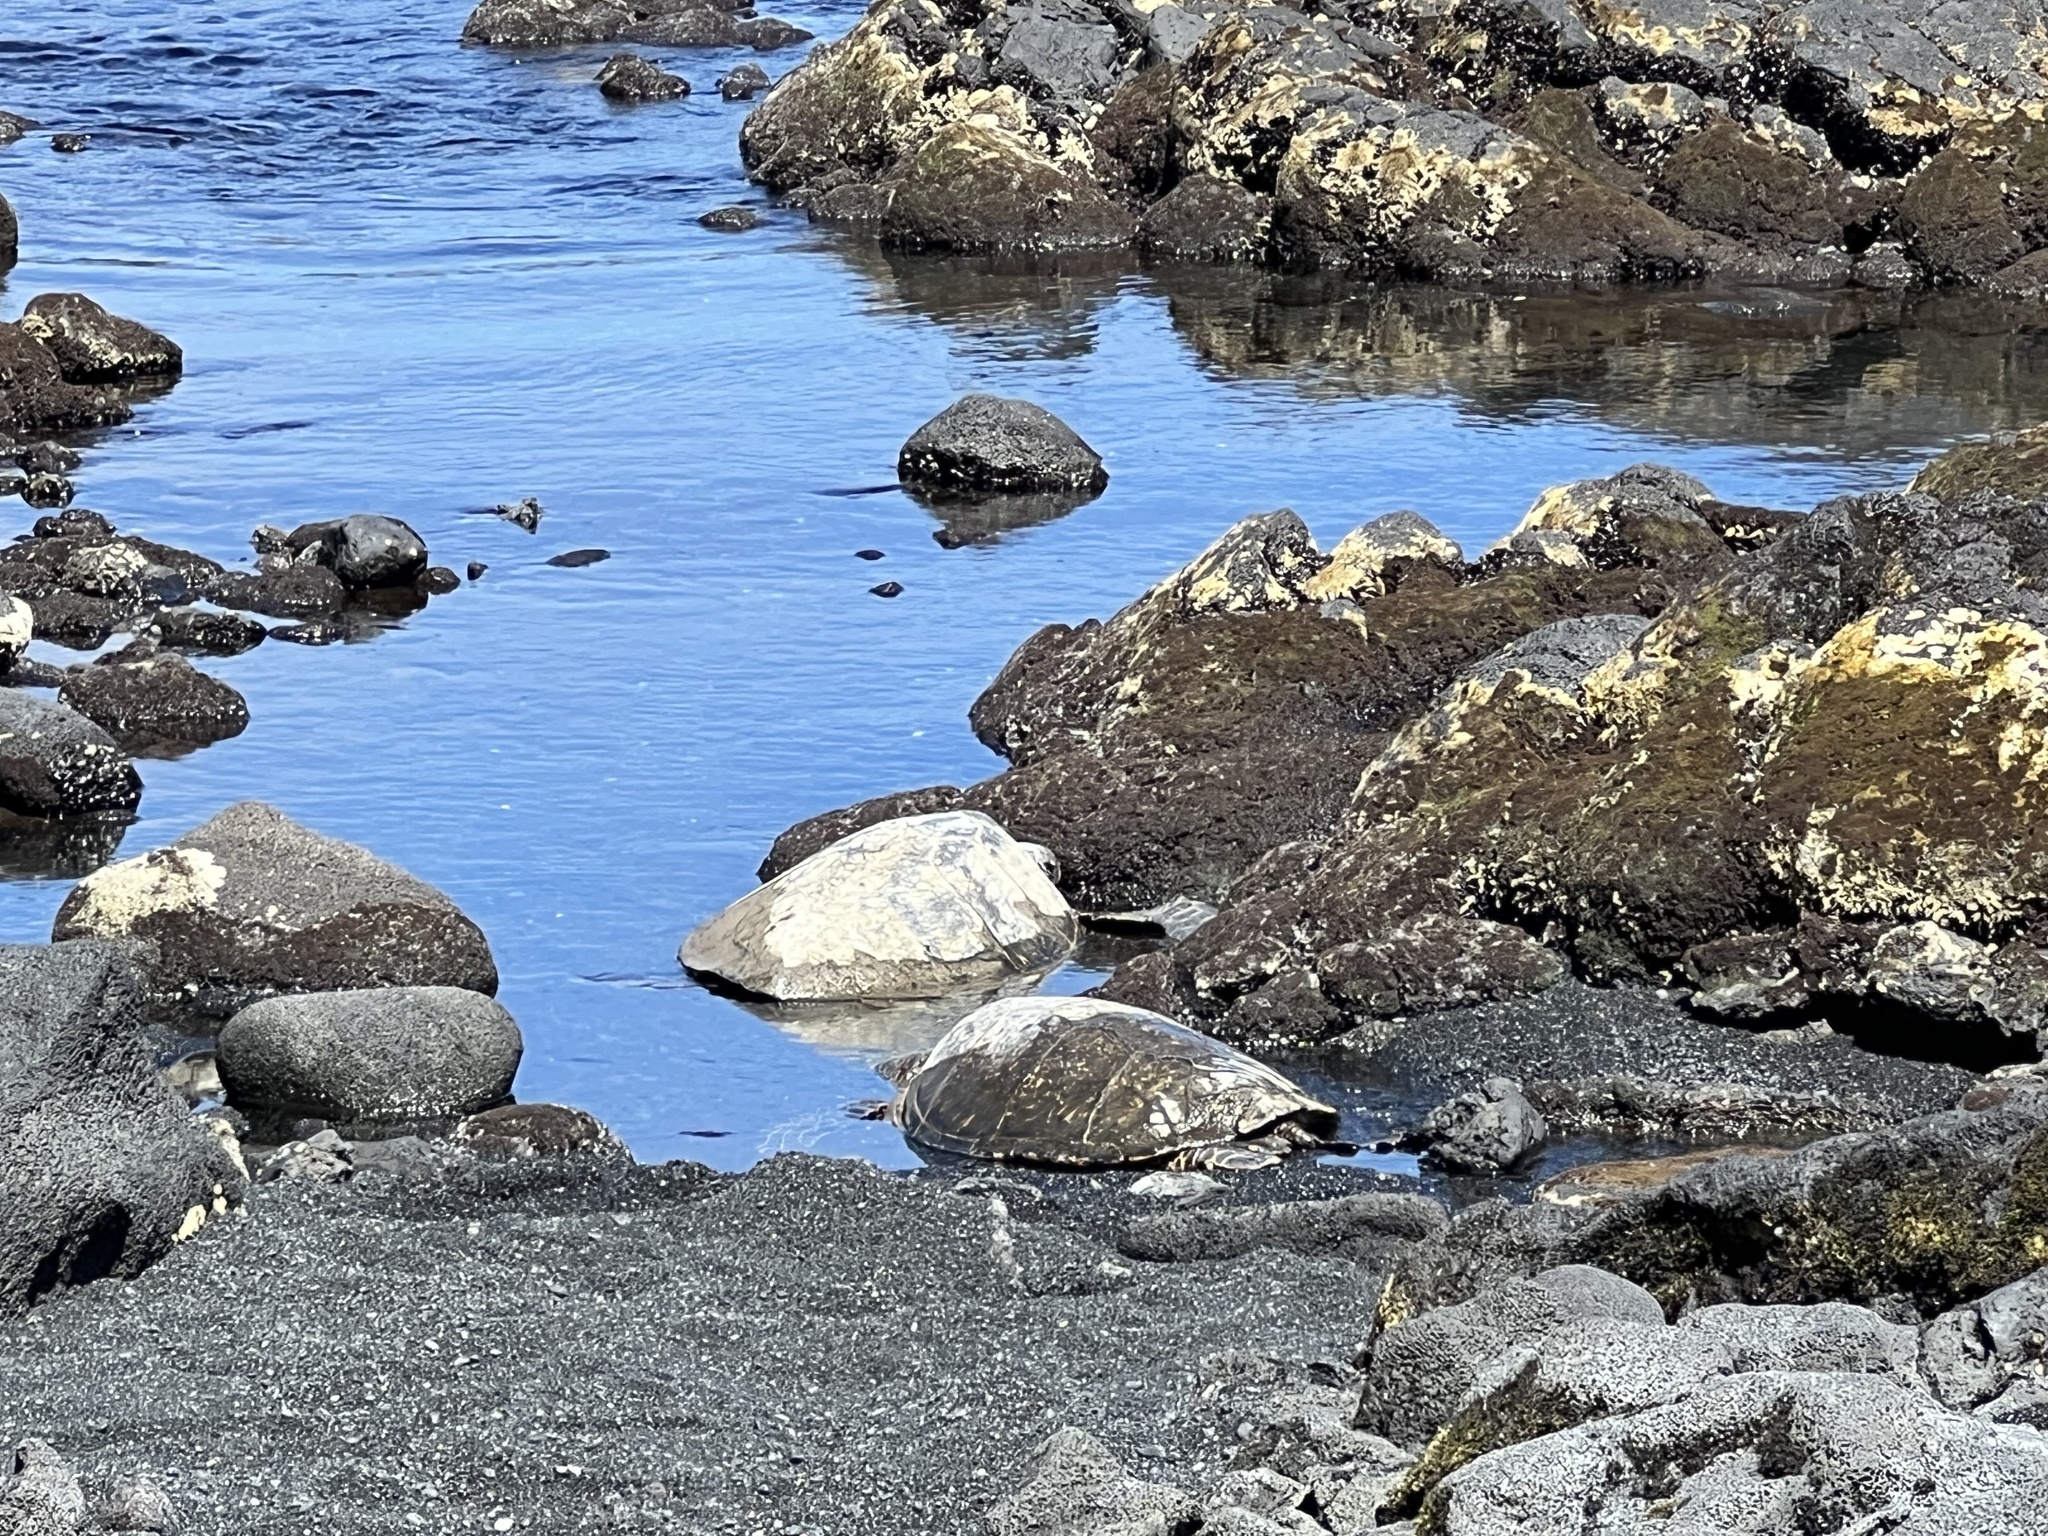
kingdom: Animalia
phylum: Chordata
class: Testudines
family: Cheloniidae
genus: Chelonia
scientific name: Chelonia mydas
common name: Green turtle
